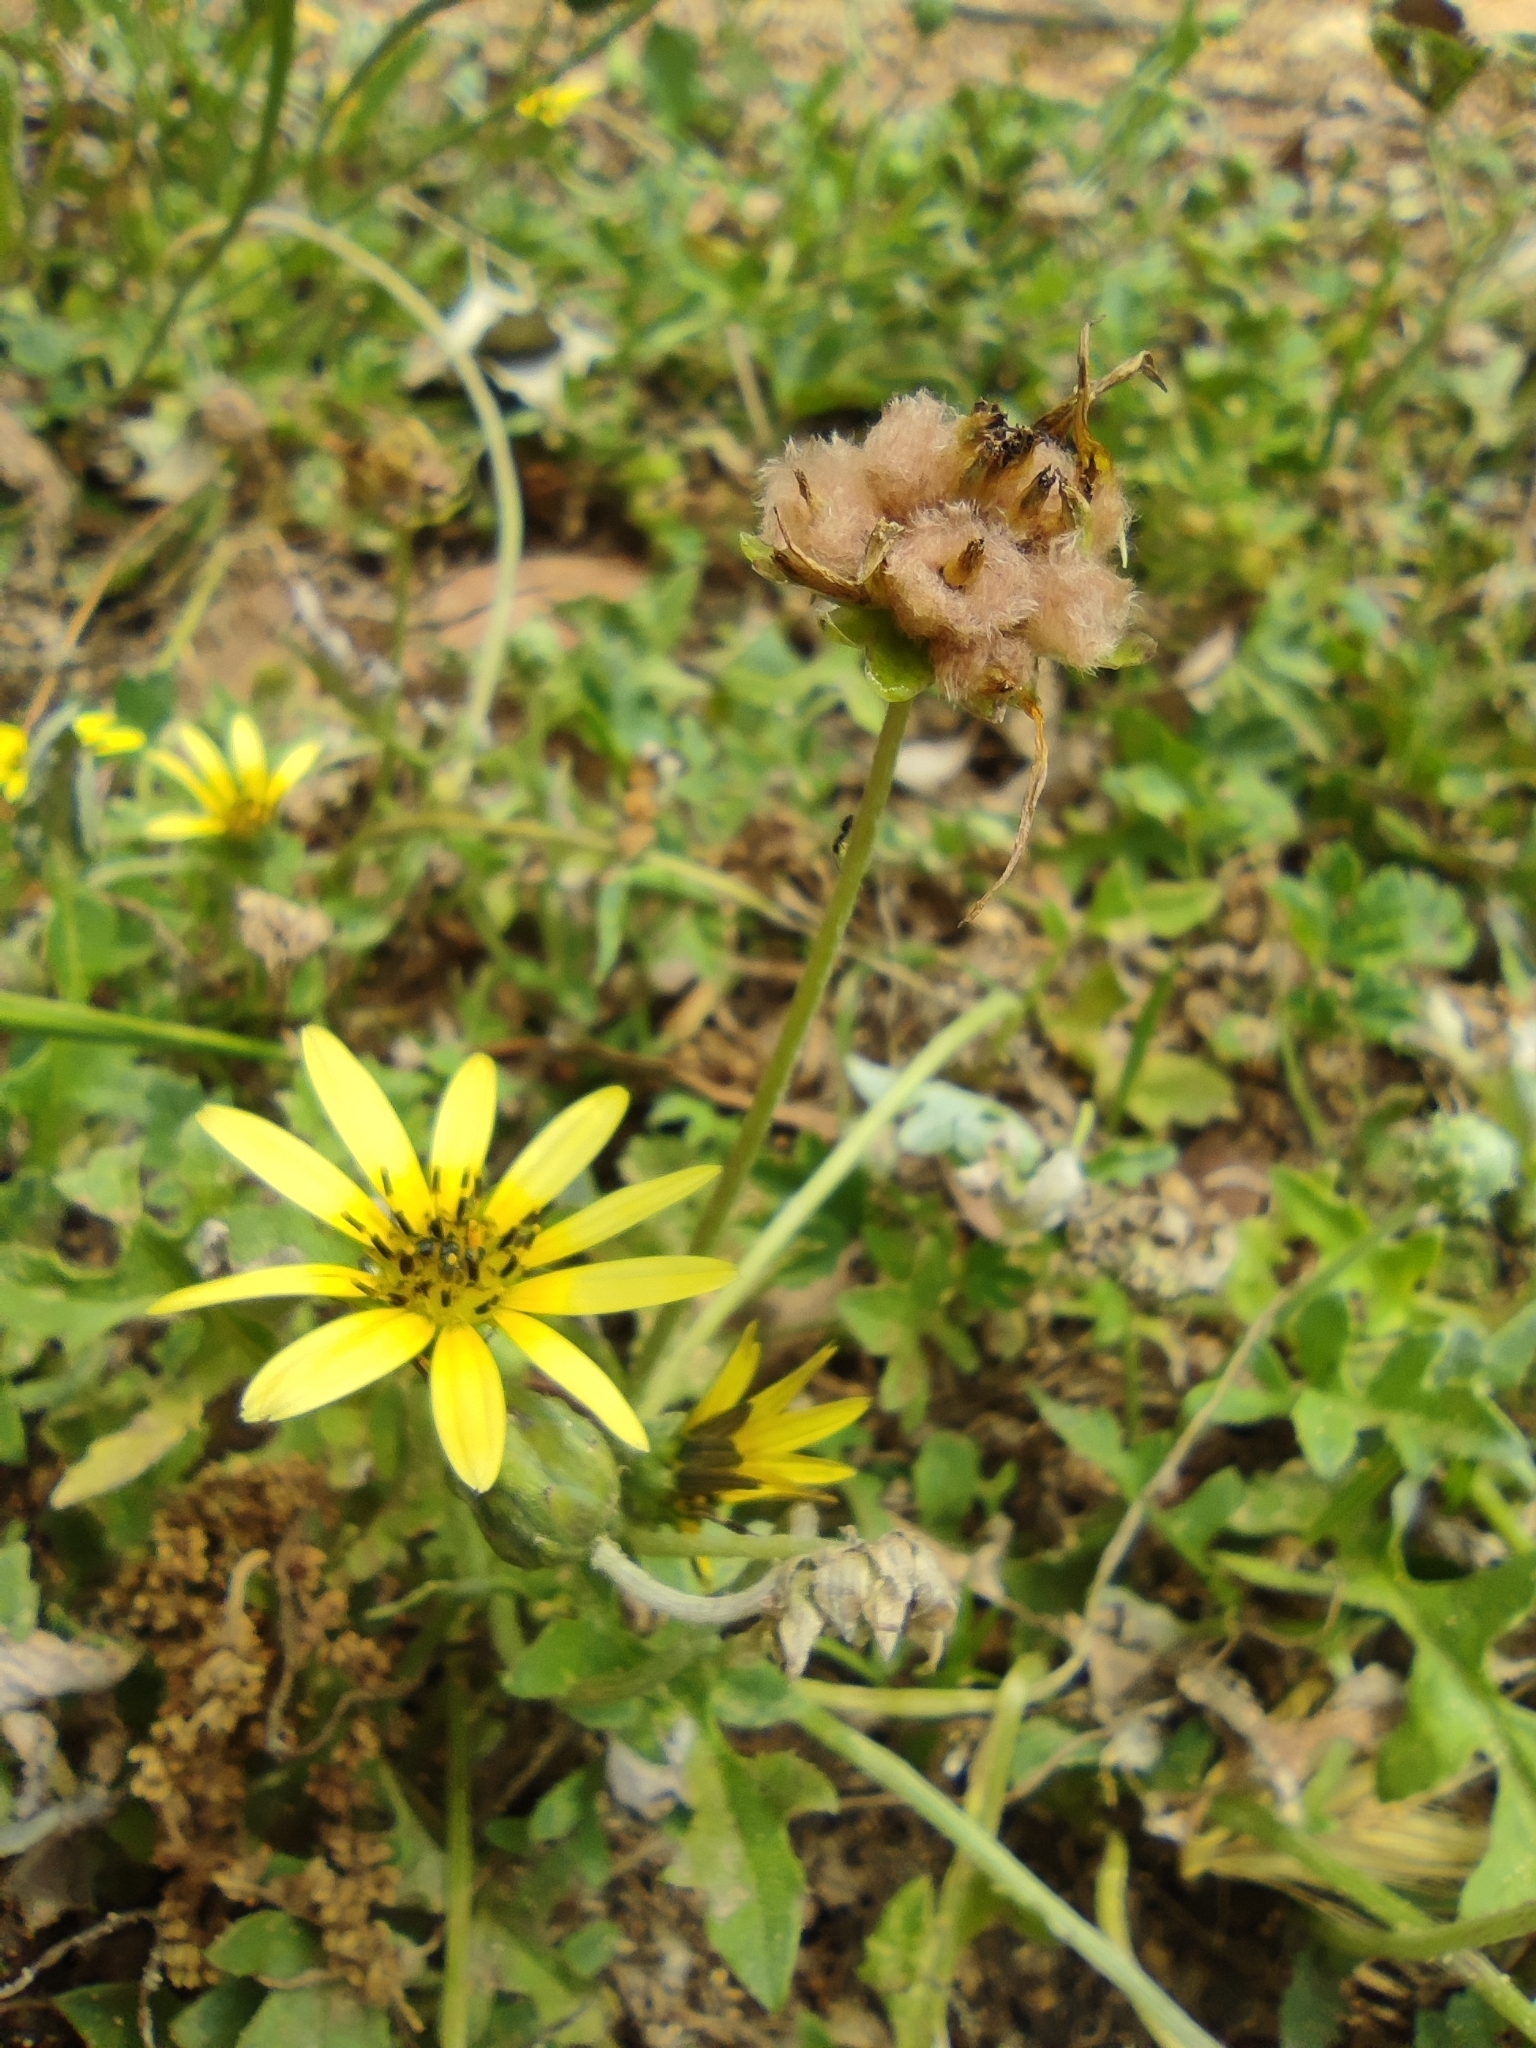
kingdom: Plantae
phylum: Tracheophyta
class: Magnoliopsida
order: Asterales
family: Asteraceae
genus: Arctotheca
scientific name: Arctotheca calendula
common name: Capeweed
